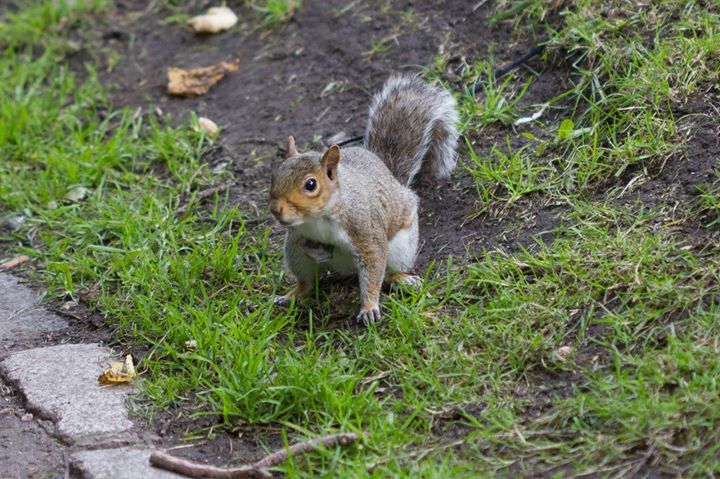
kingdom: Animalia
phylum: Chordata
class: Mammalia
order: Rodentia
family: Sciuridae
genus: Sciurus
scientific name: Sciurus carolinensis
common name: Eastern gray squirrel
